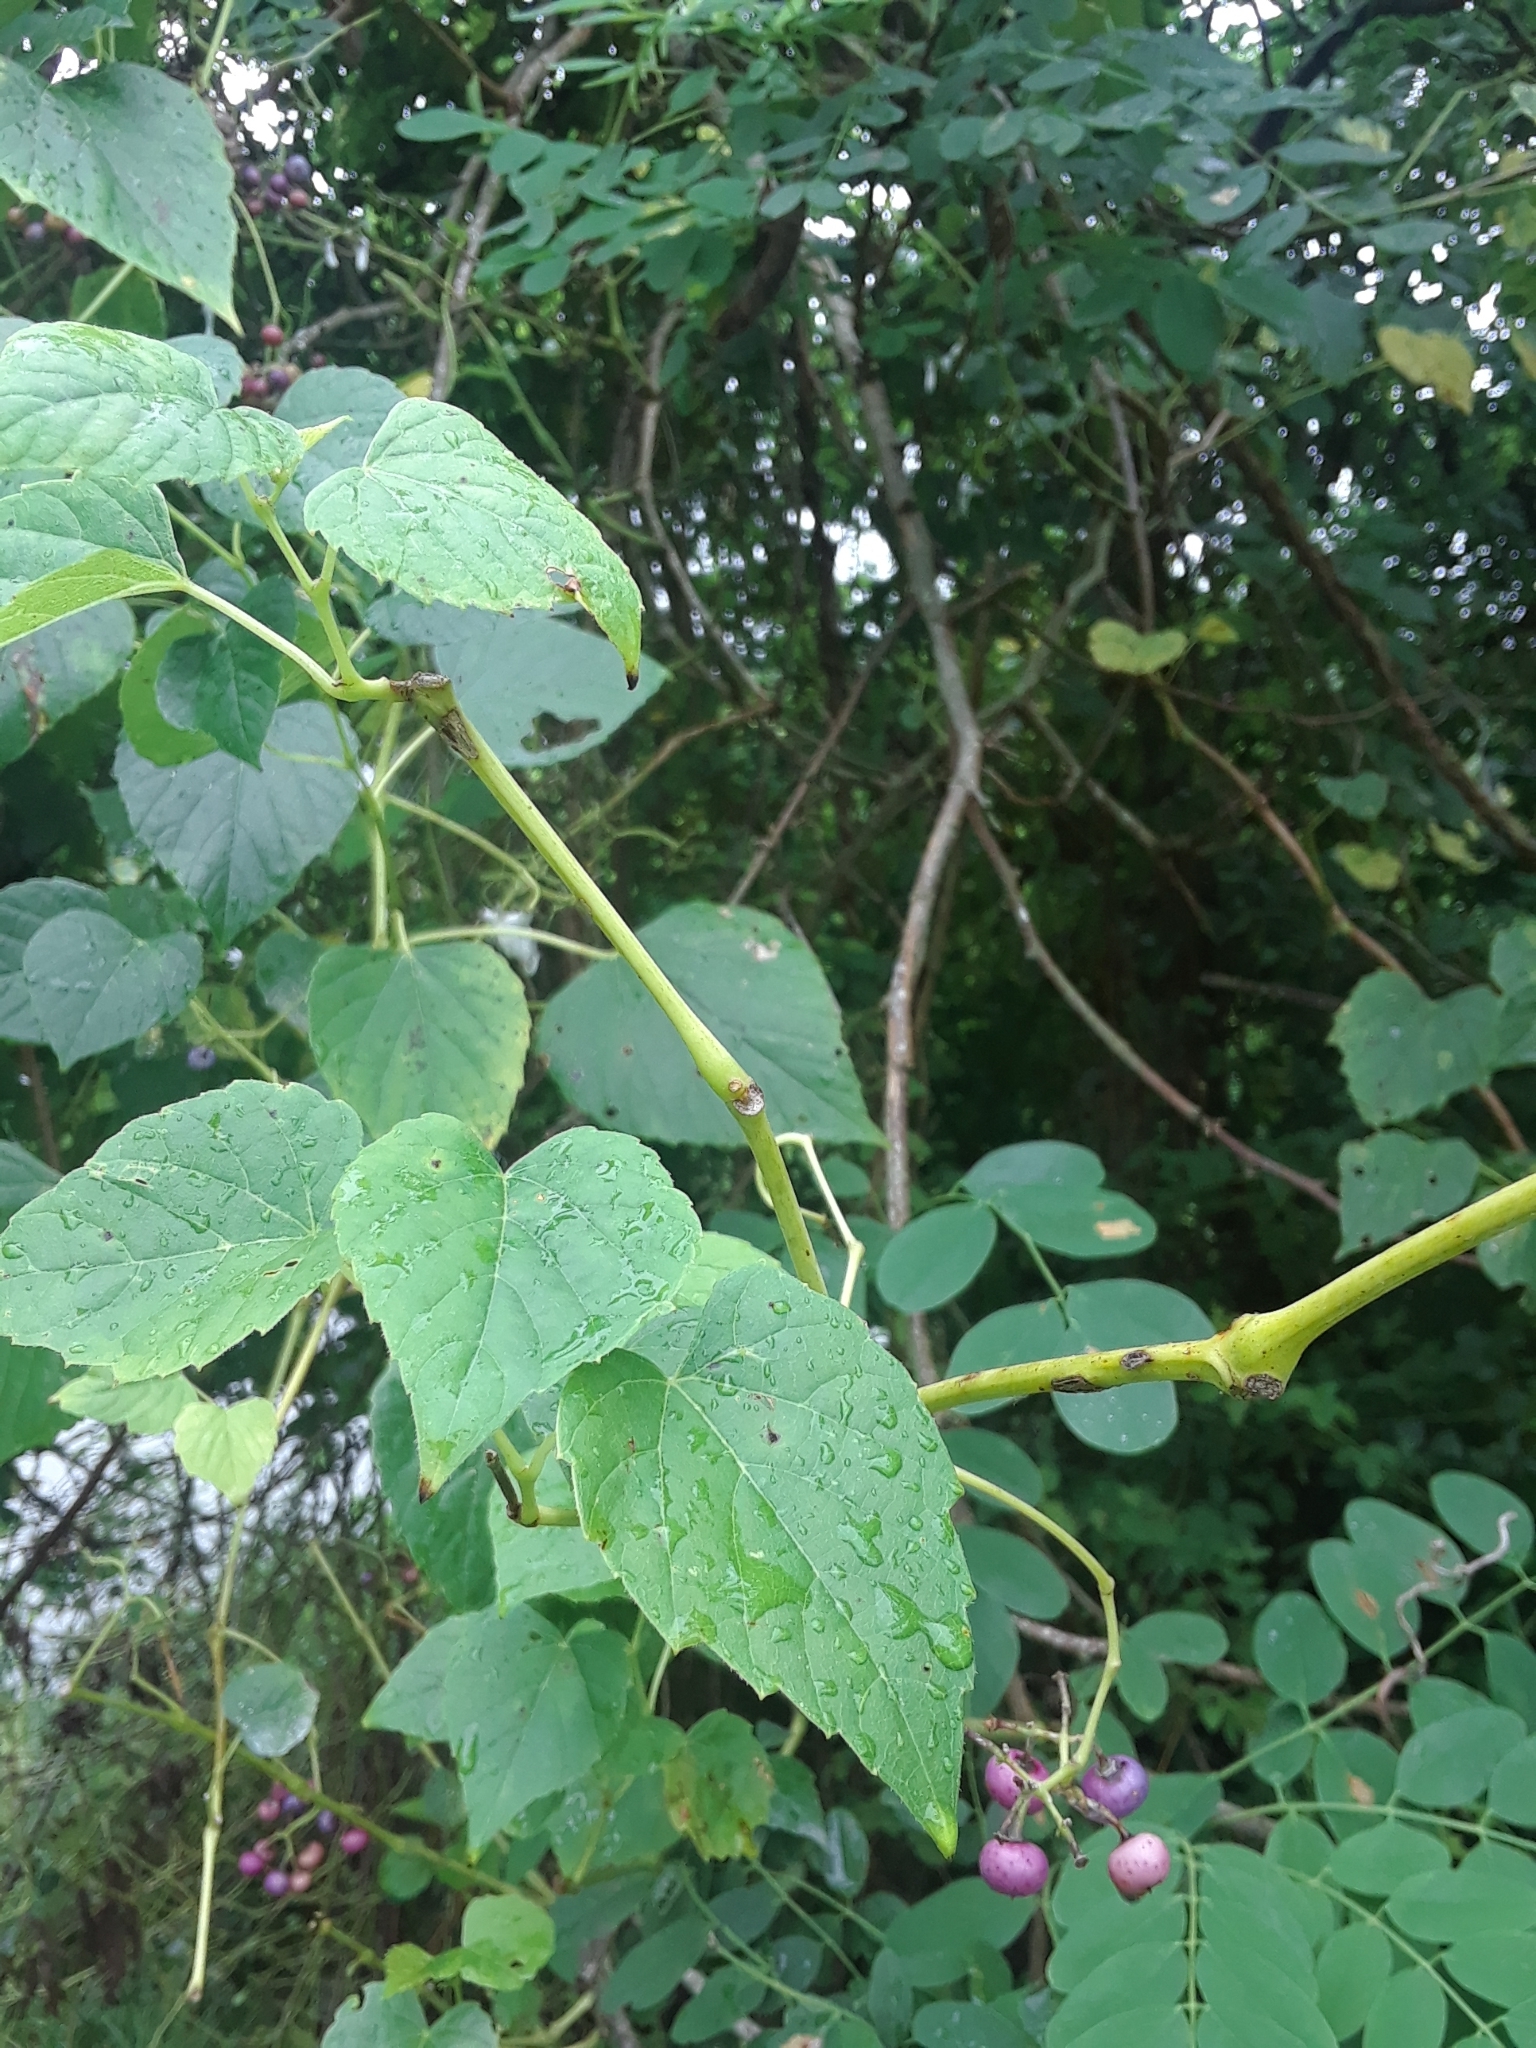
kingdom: Plantae
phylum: Tracheophyta
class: Magnoliopsida
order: Vitales
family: Vitaceae
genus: Ampelopsis
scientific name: Ampelopsis cordata
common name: Heart-leaf ampelopsis
